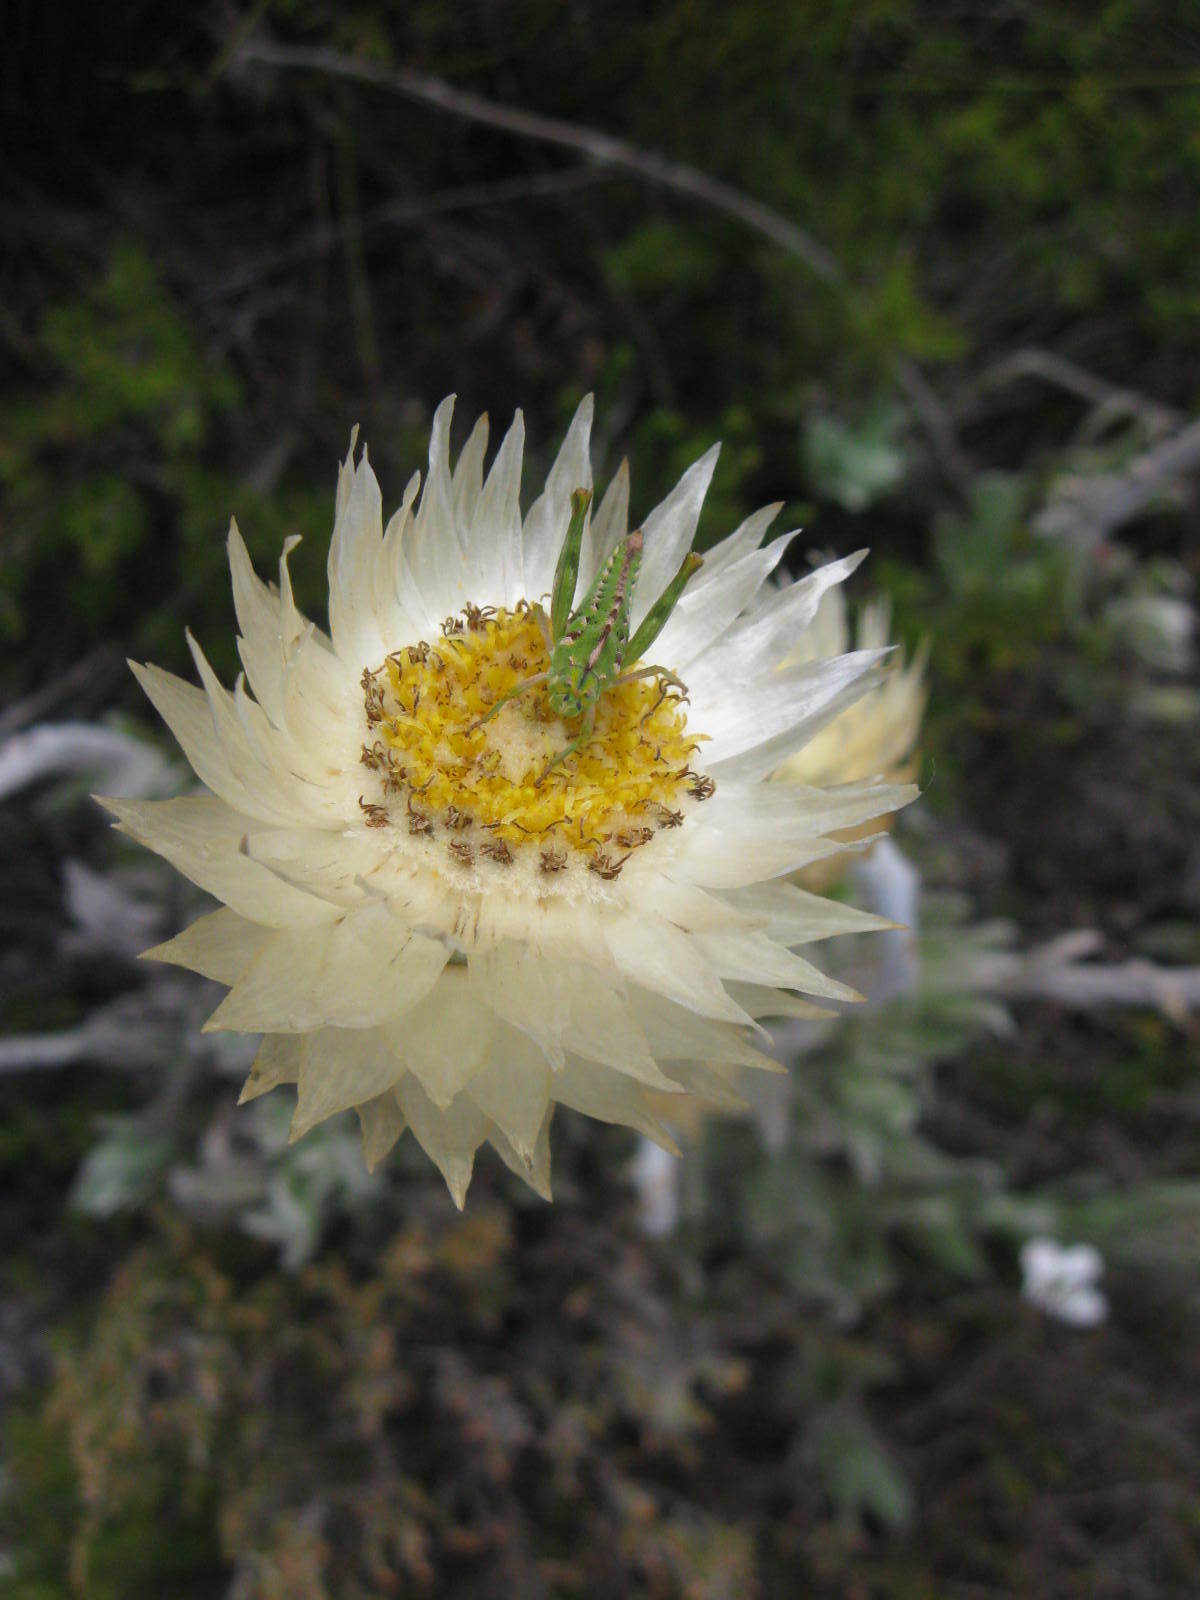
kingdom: Animalia
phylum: Arthropoda
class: Insecta
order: Orthoptera
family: Thericleidae
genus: Thericlesiella
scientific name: Thericlesiella meridionalis
